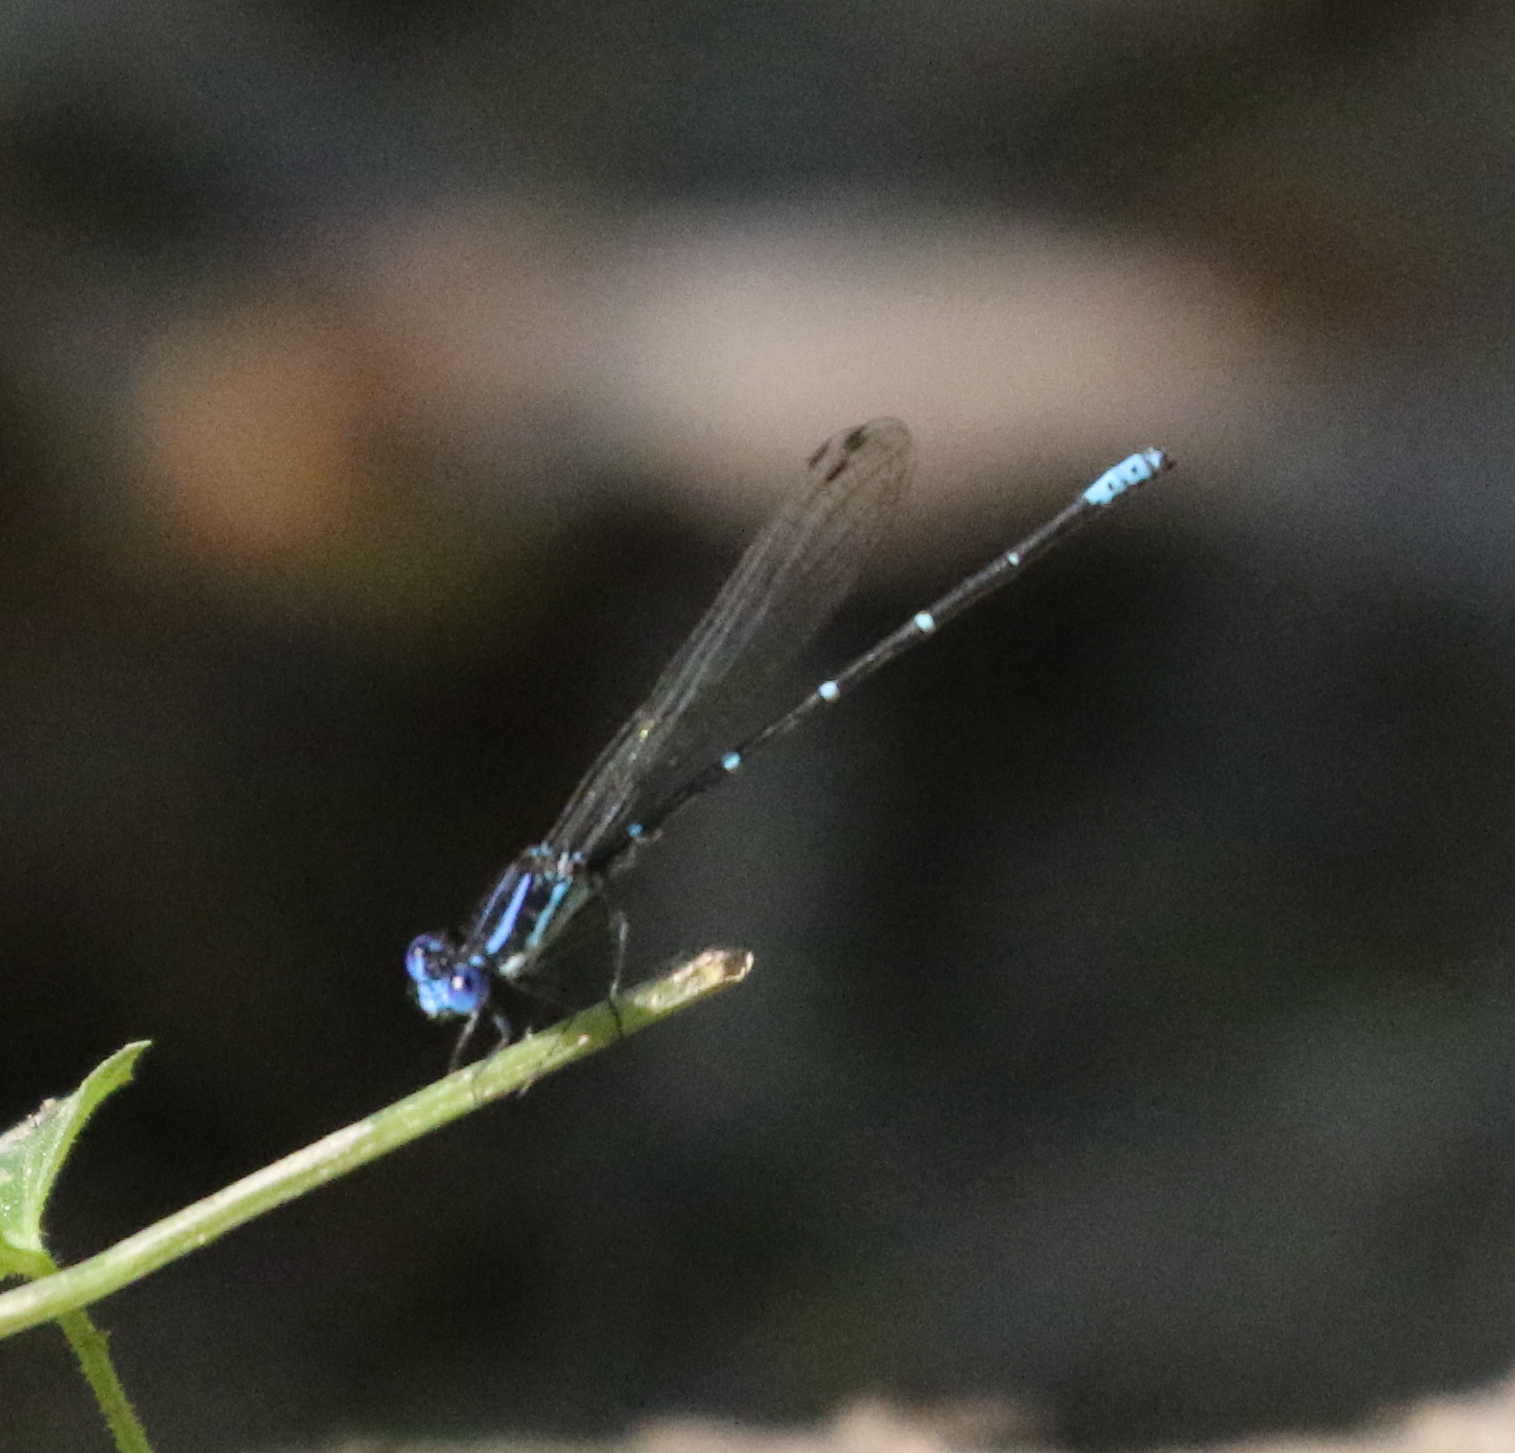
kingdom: Animalia
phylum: Arthropoda
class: Insecta
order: Odonata
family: Coenagrionidae
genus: Argia
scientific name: Argia sedula
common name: Blue-ringed dancer
